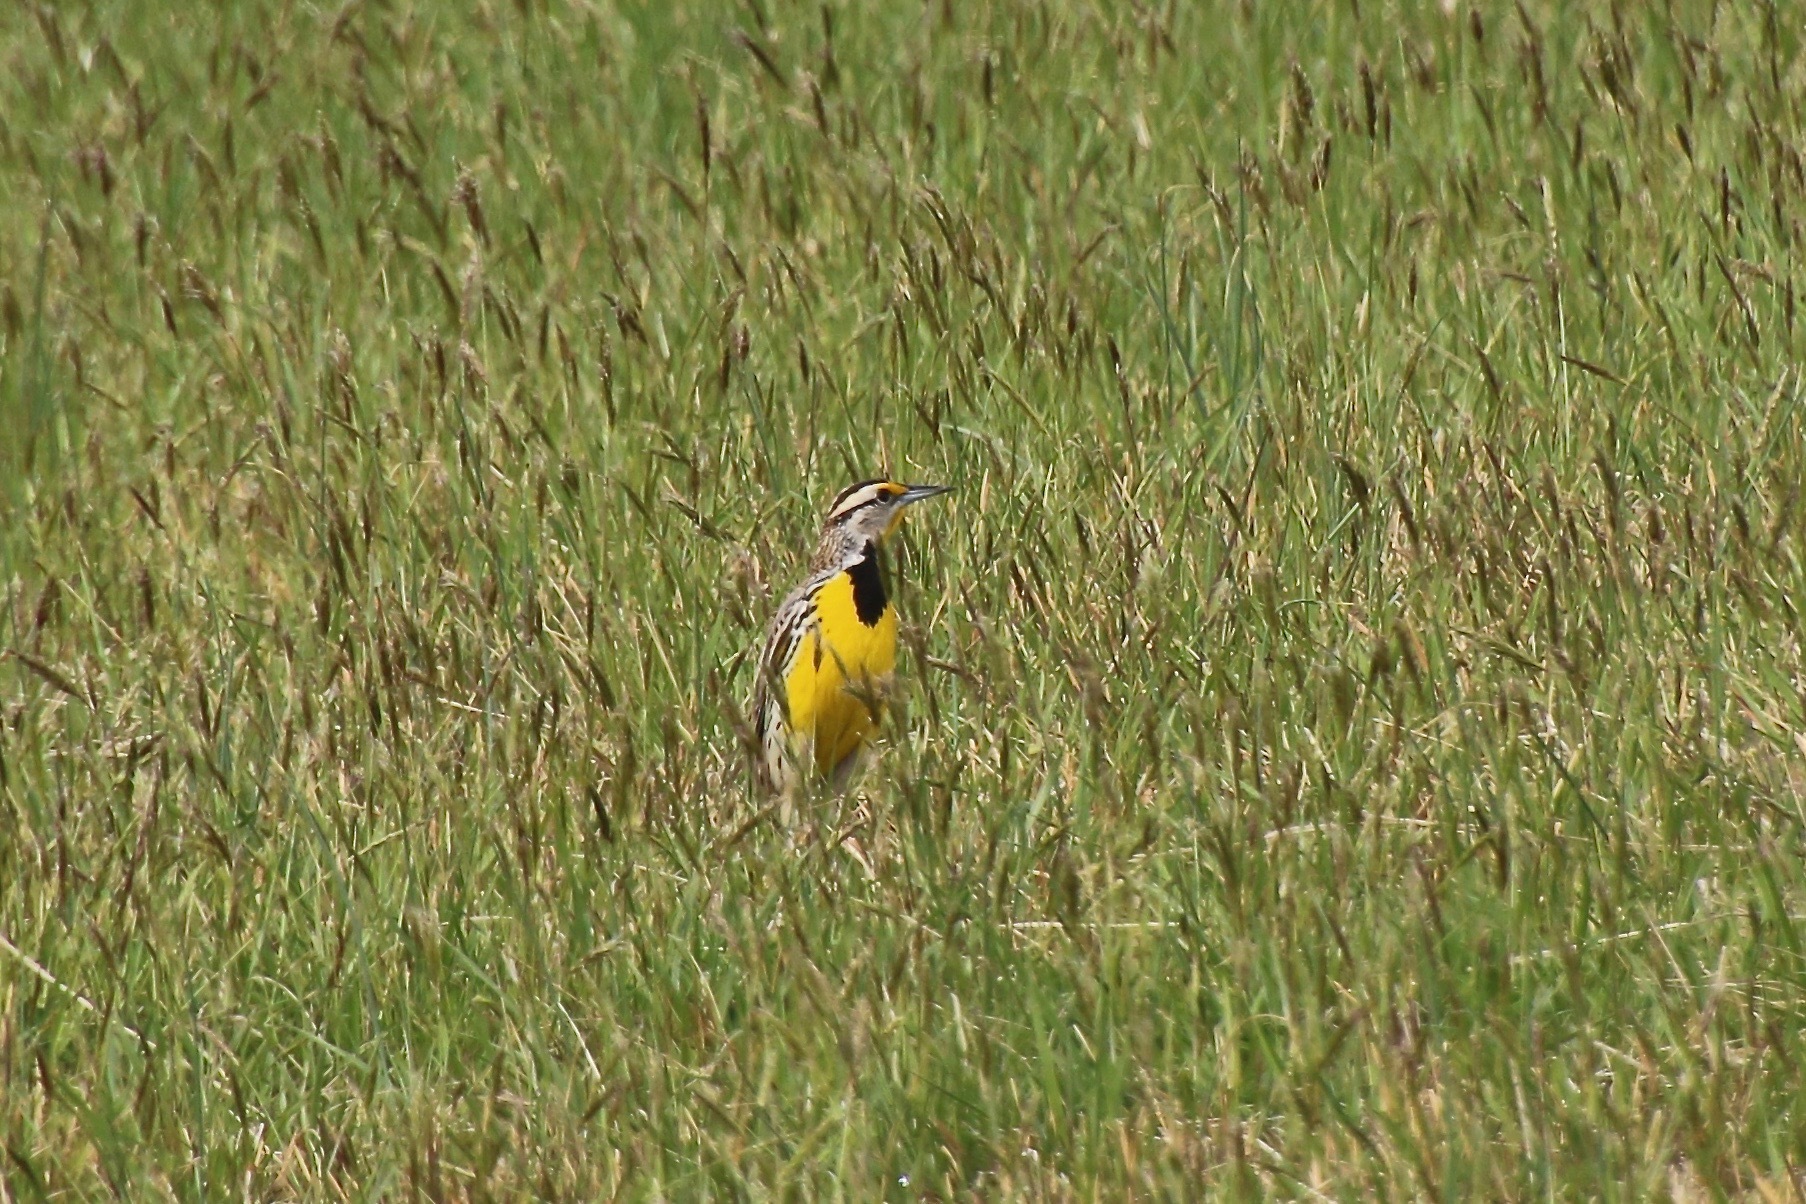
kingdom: Animalia
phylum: Chordata
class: Aves
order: Passeriformes
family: Icteridae
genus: Sturnella
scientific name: Sturnella magna
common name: Eastern meadowlark
